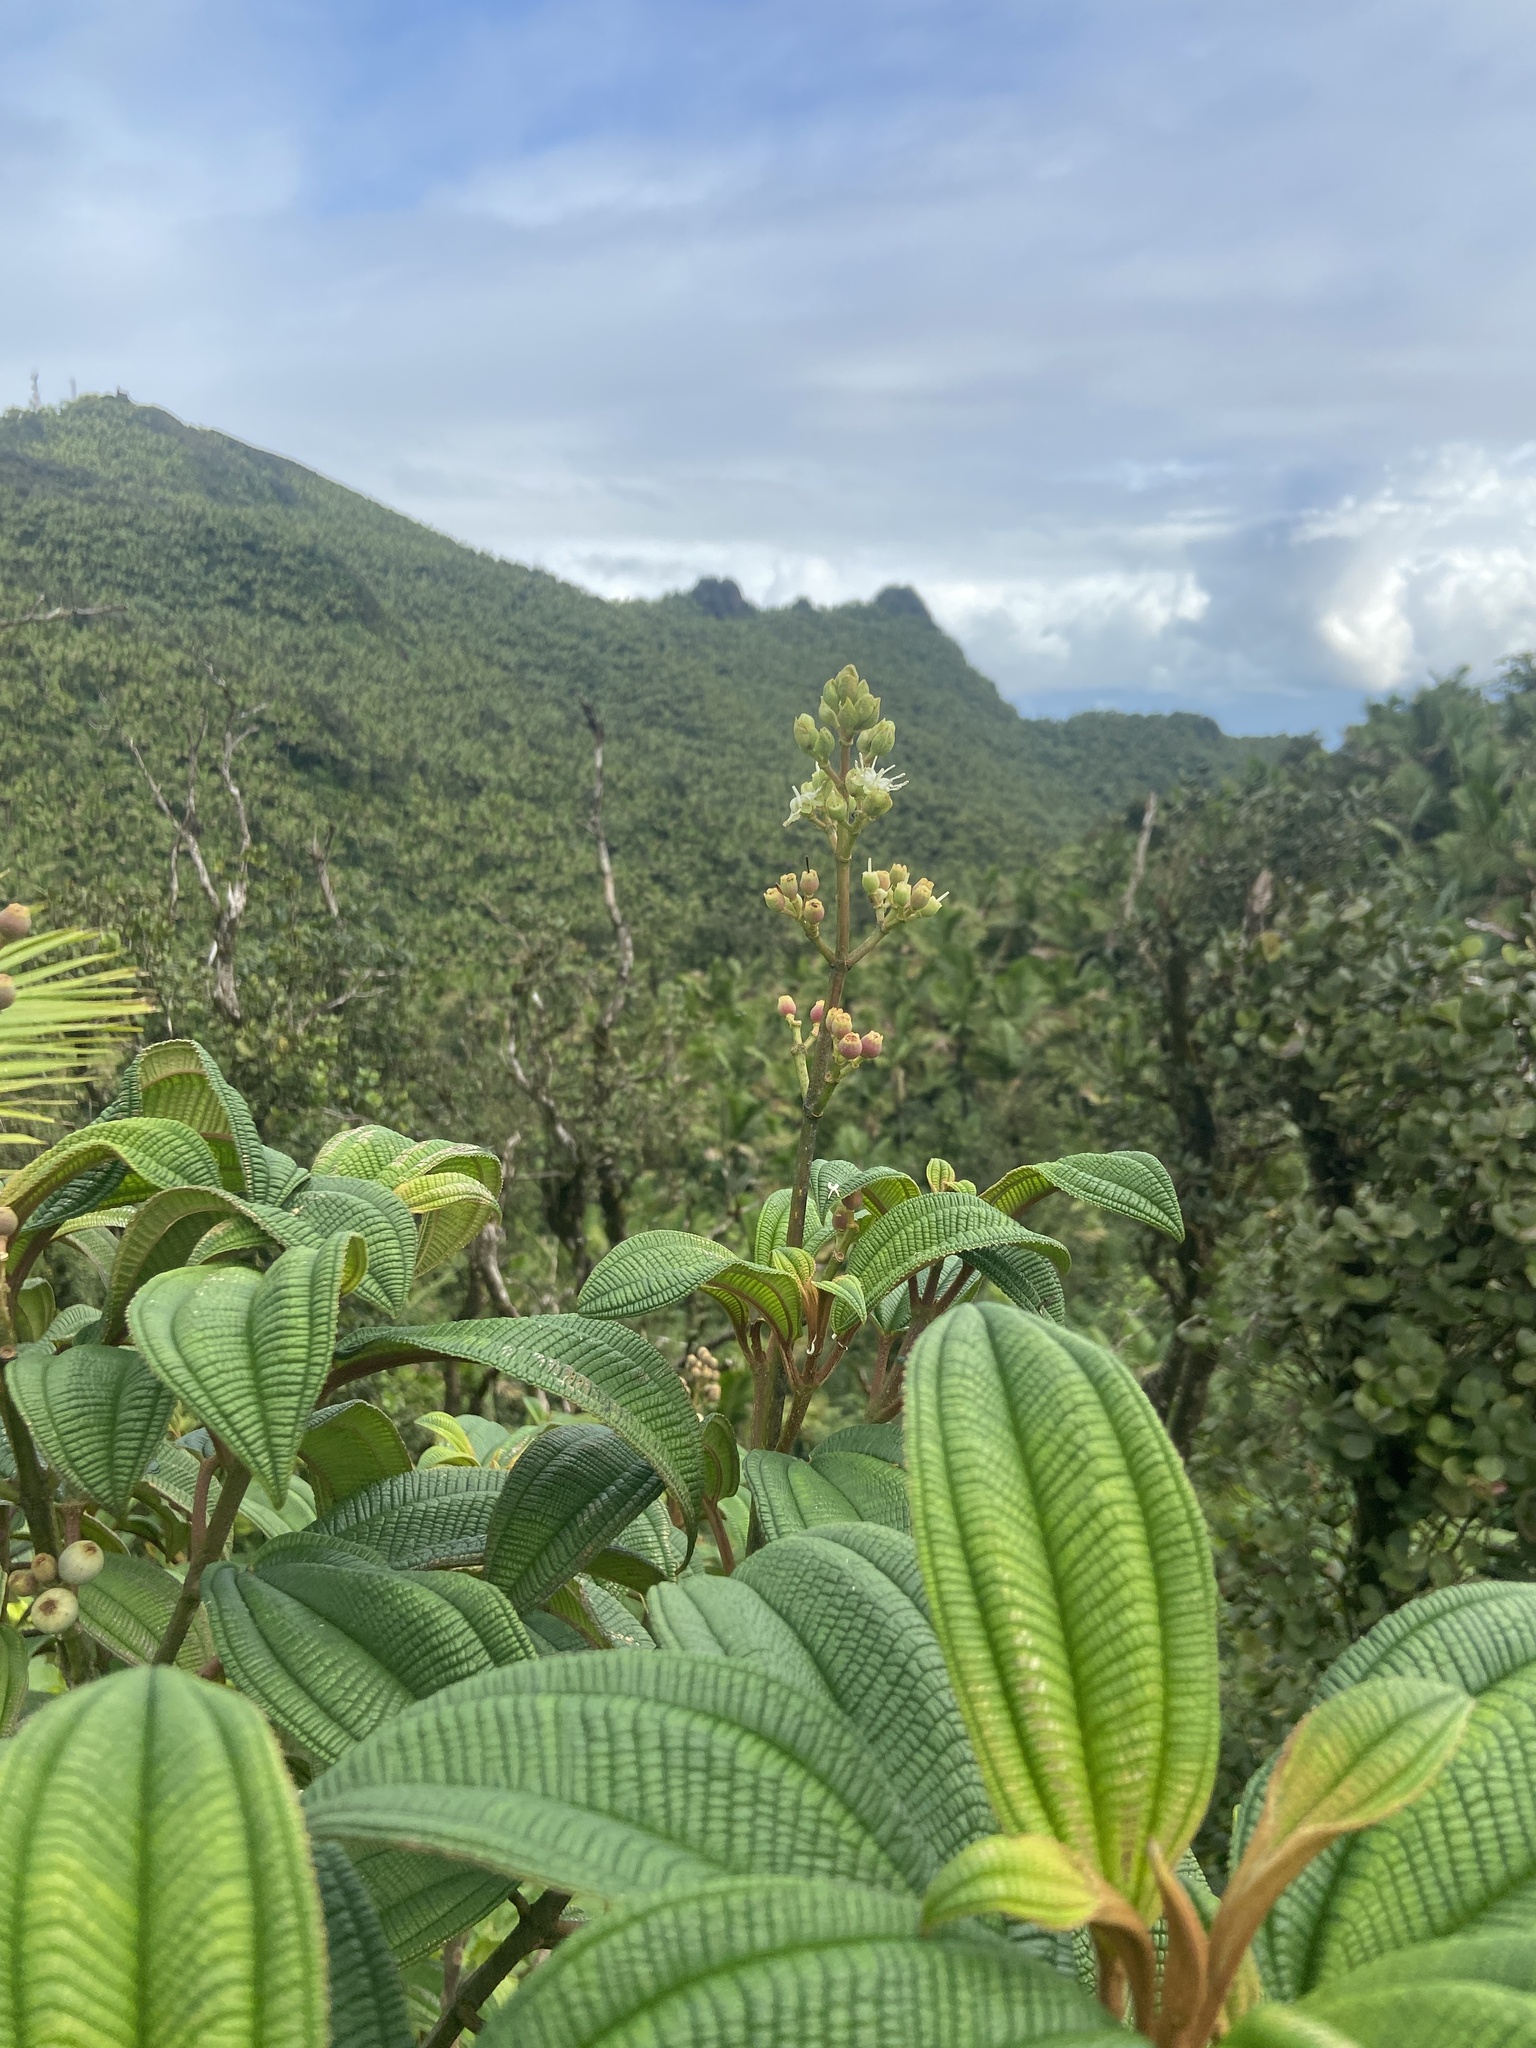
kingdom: Plantae
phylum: Tracheophyta
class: Magnoliopsida
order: Myrtales
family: Melastomataceae
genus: Miconia
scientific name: Miconia sintenisii
